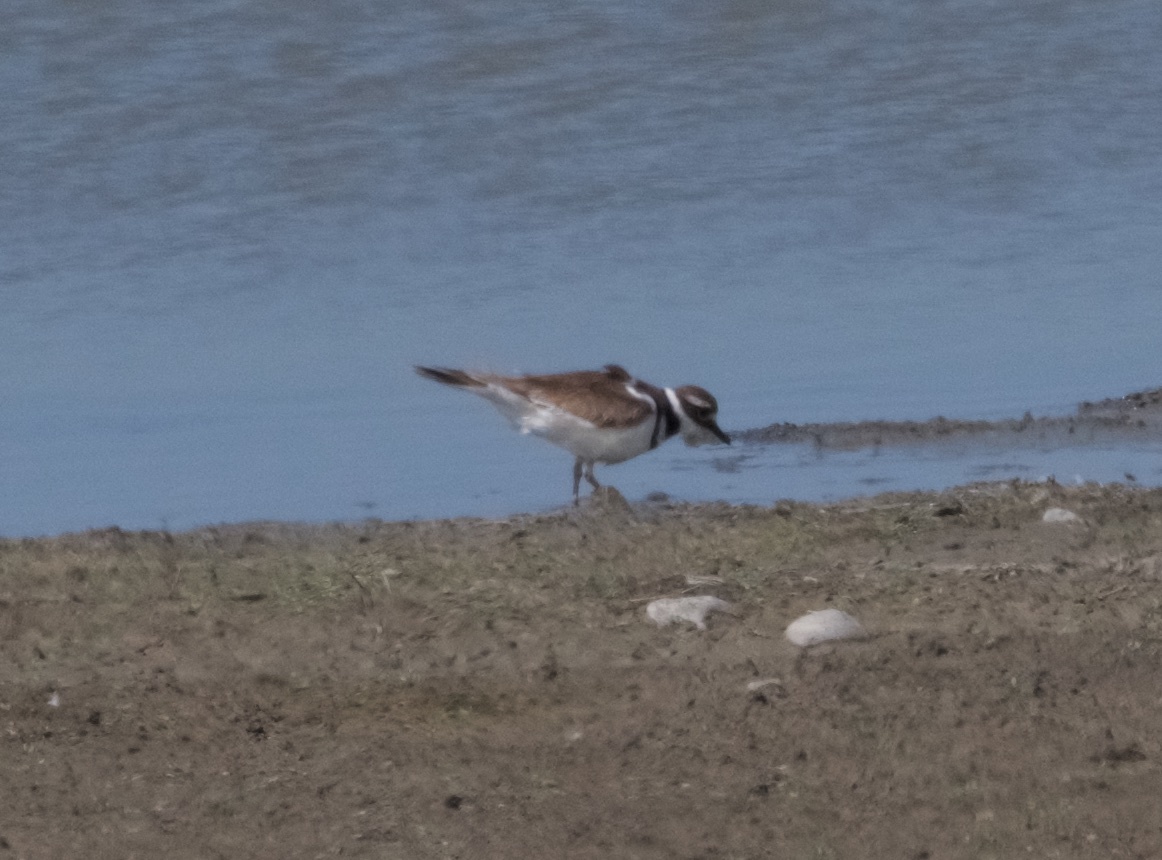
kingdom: Animalia
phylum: Chordata
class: Aves
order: Charadriiformes
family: Charadriidae
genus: Charadrius
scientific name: Charadrius vociferus
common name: Killdeer
